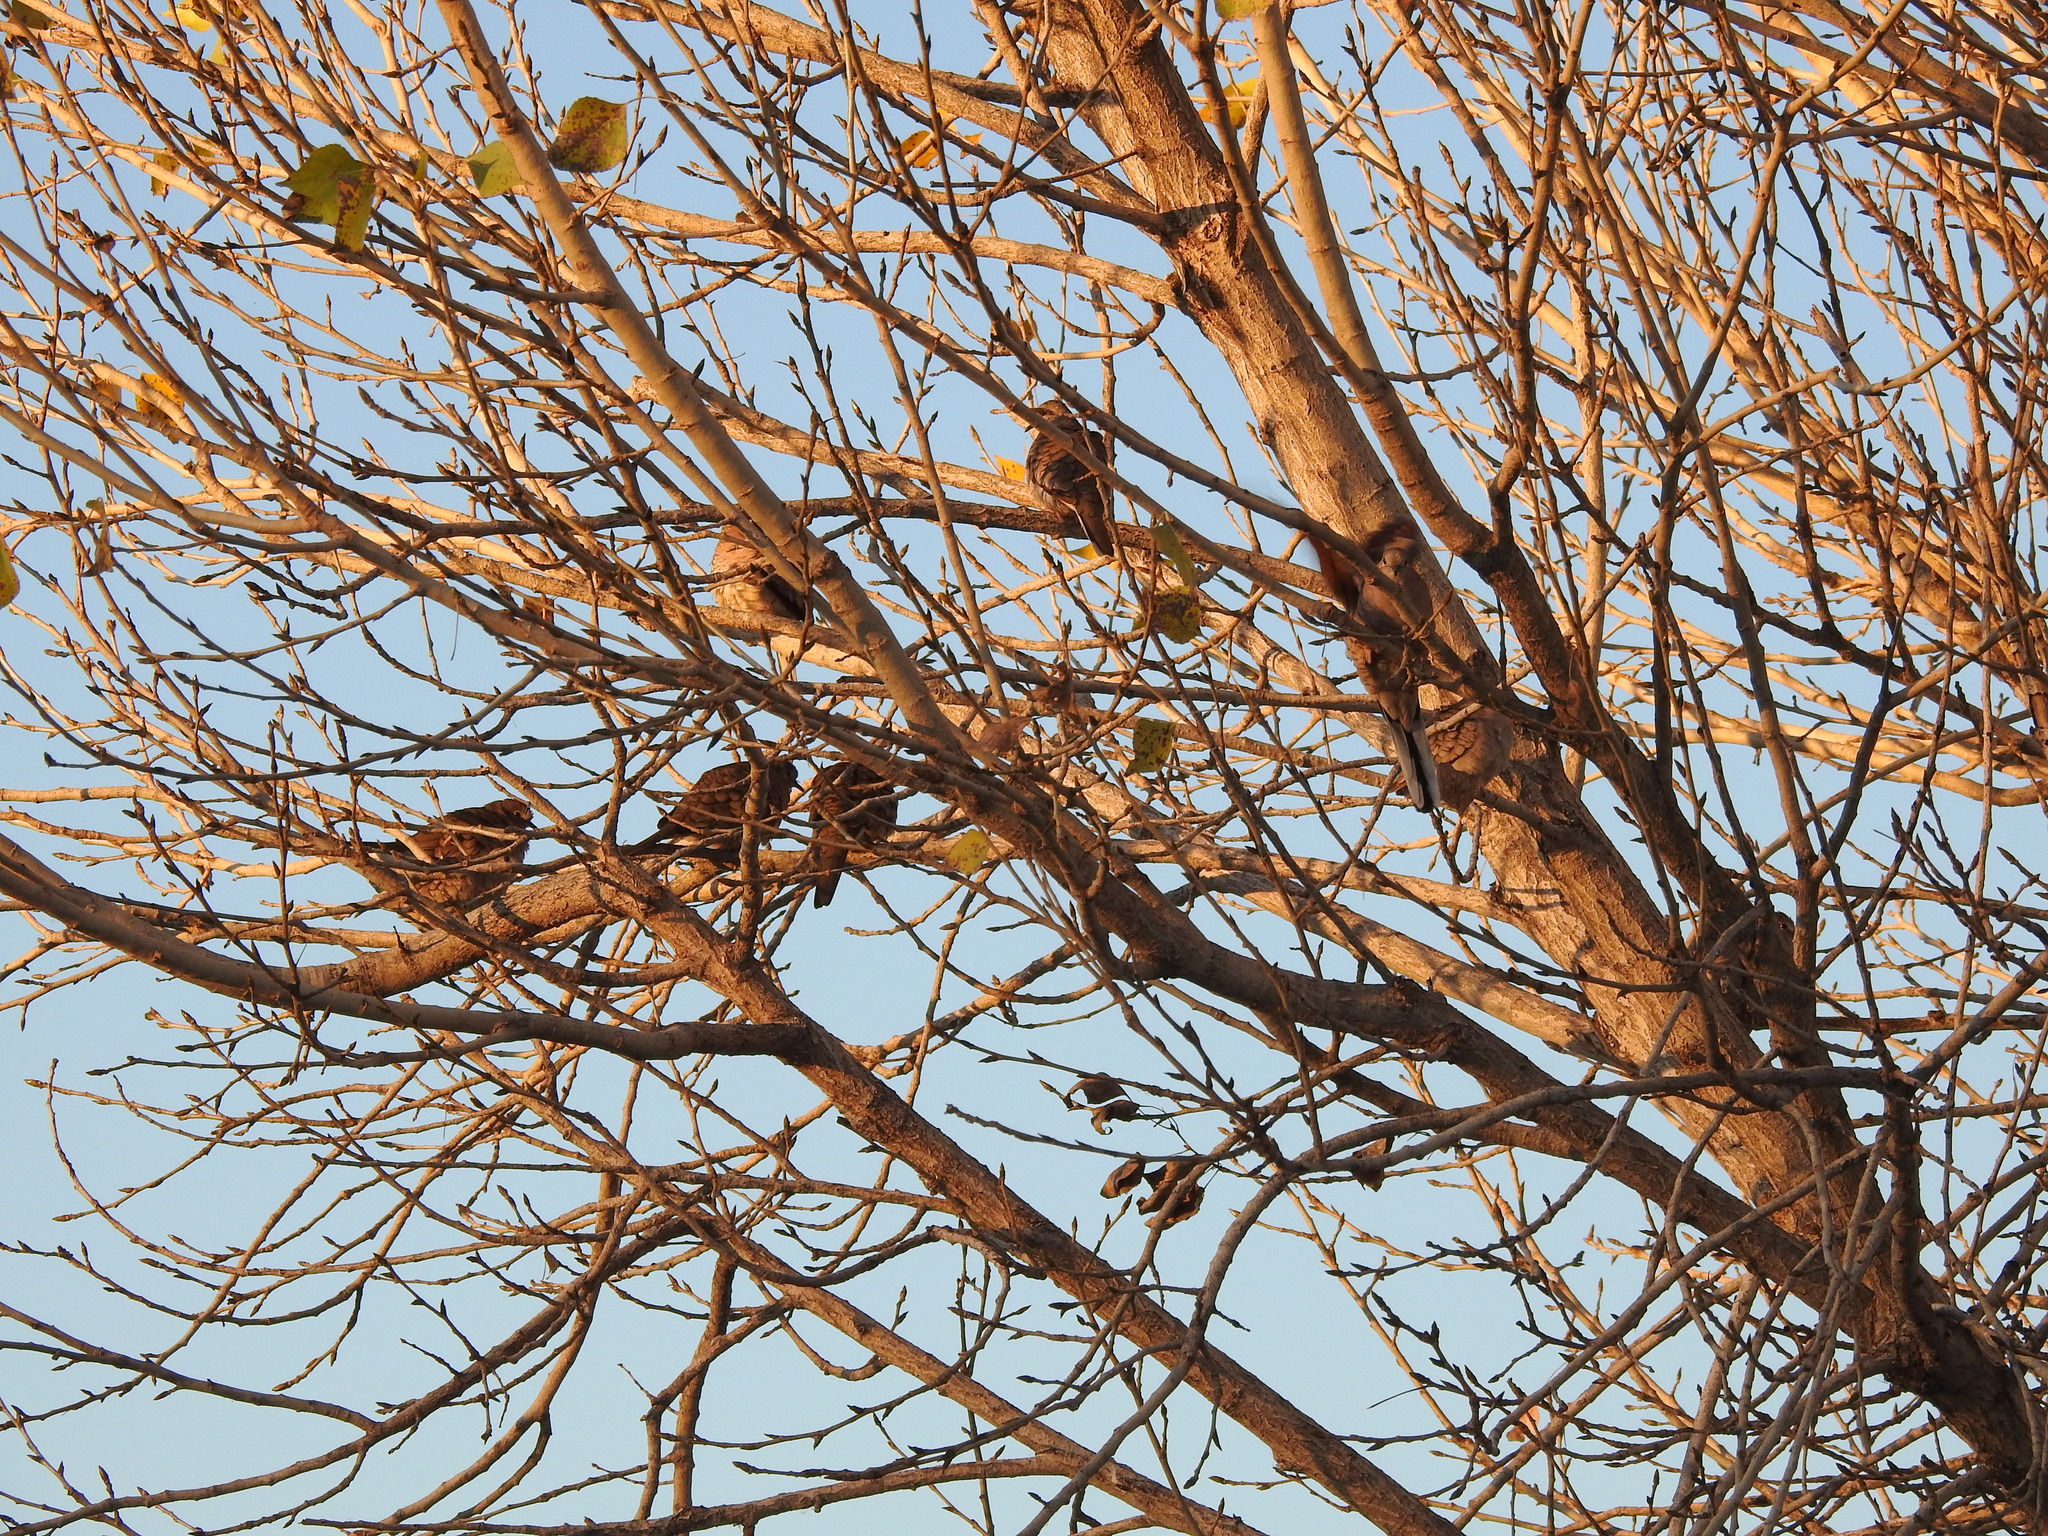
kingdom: Animalia
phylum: Chordata
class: Aves
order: Columbiformes
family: Columbidae
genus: Columbina
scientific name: Columbina inca
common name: Inca dove
